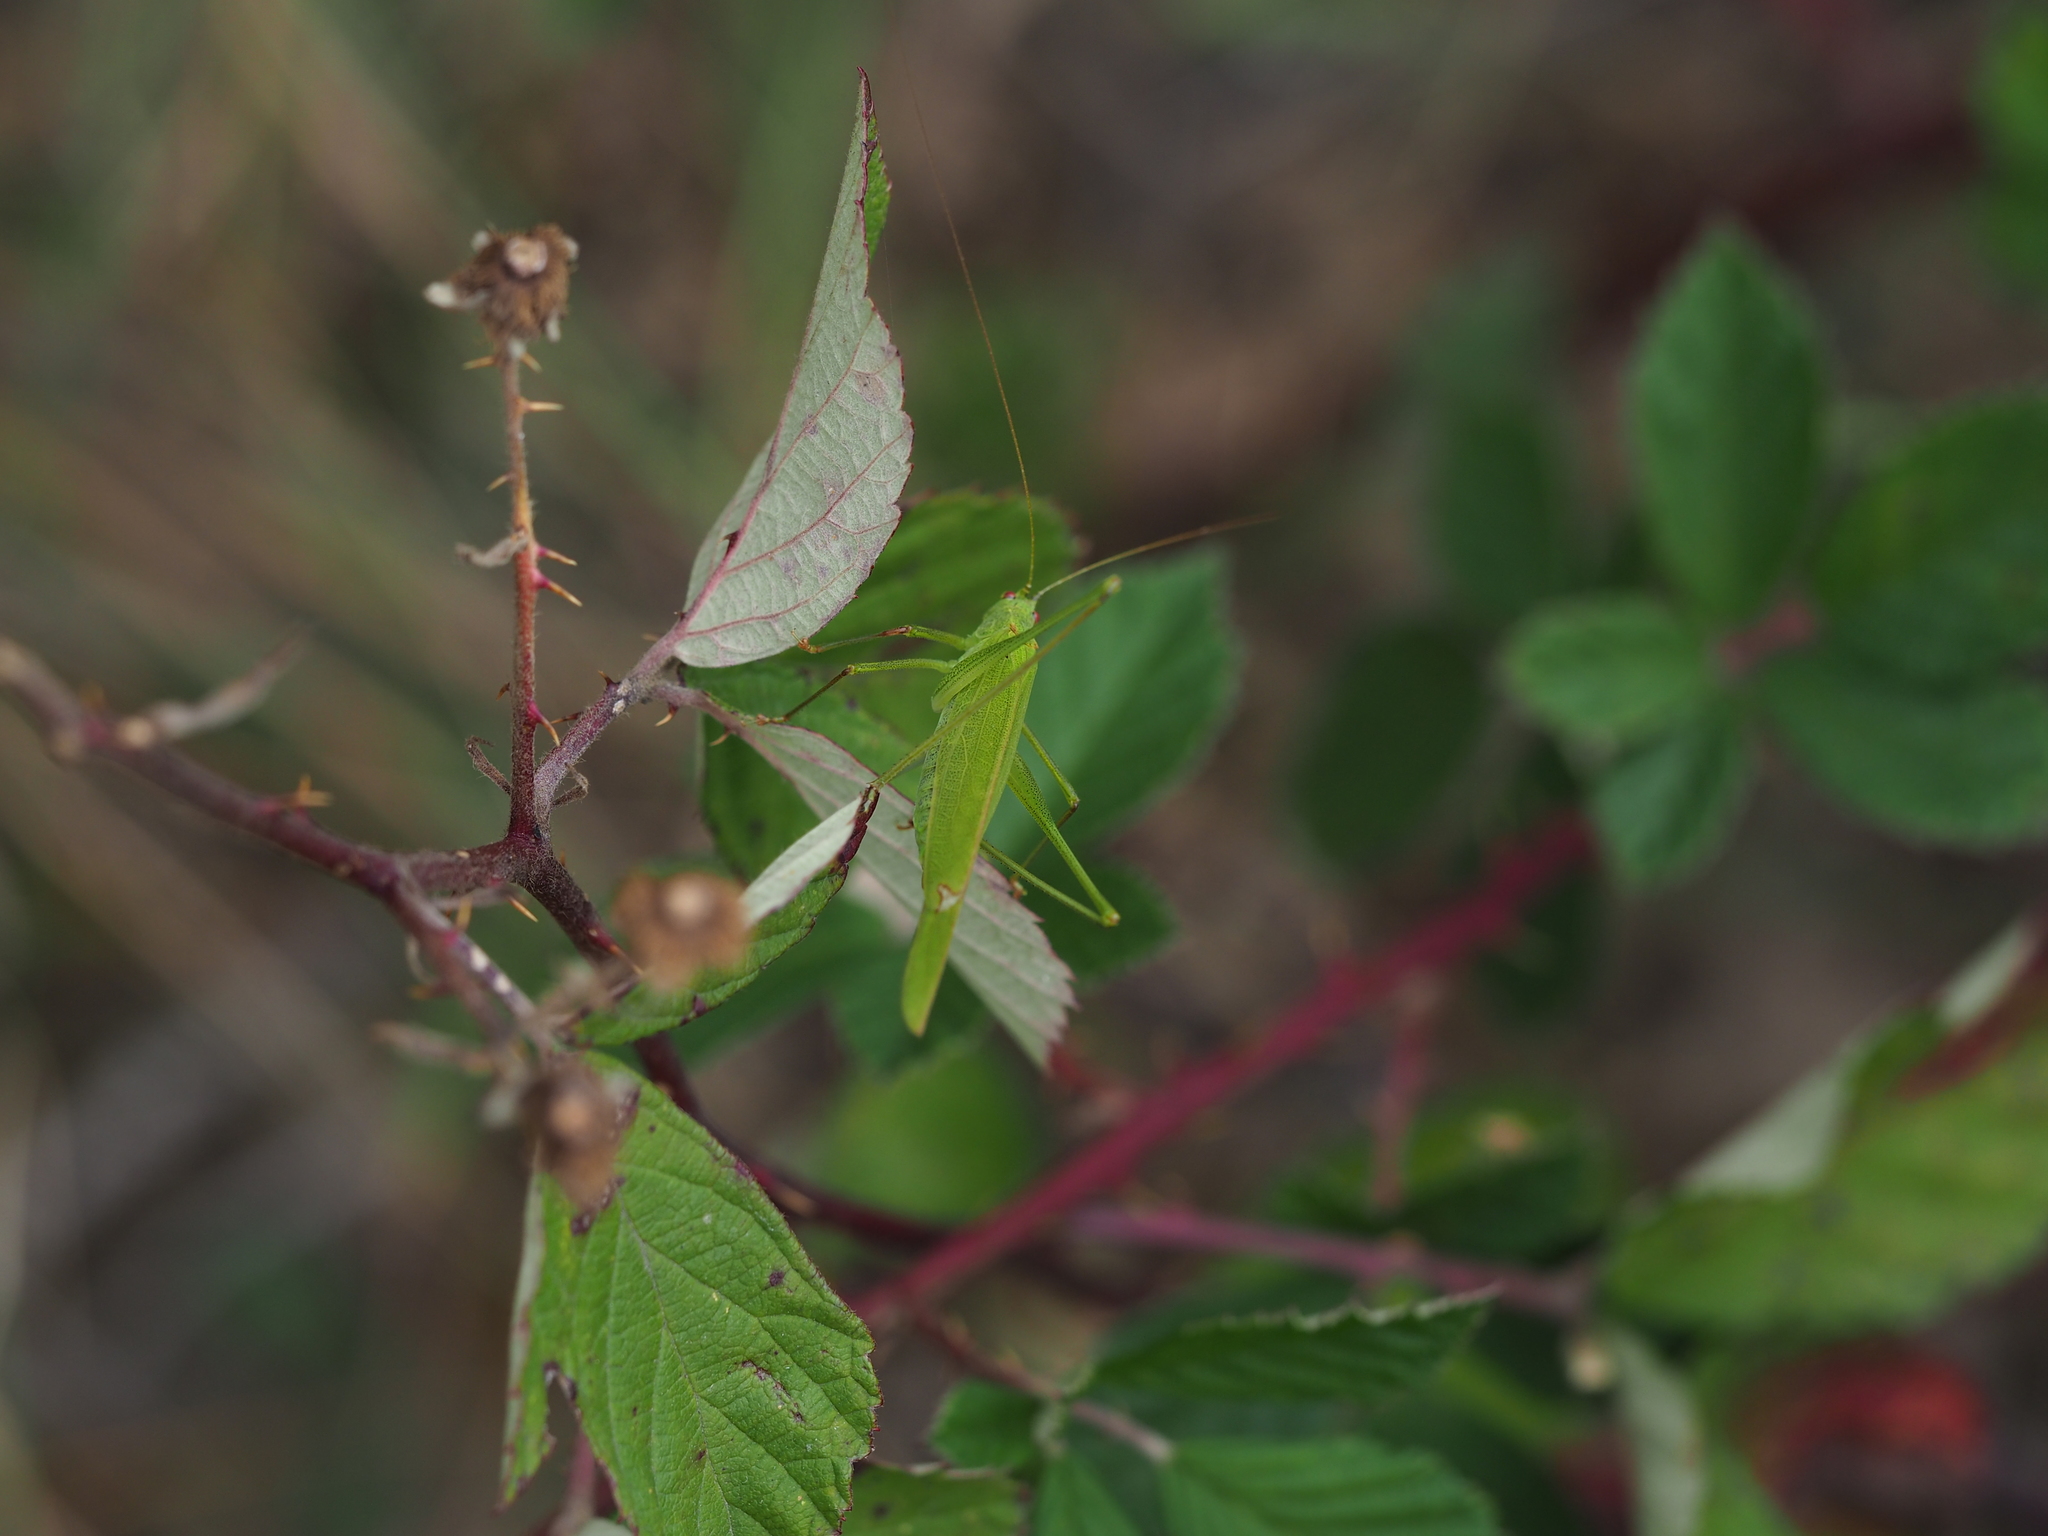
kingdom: Animalia
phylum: Arthropoda
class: Insecta
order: Orthoptera
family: Tettigoniidae
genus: Phaneroptera
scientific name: Phaneroptera falcata
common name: Sickle-bearing bush-cricket
